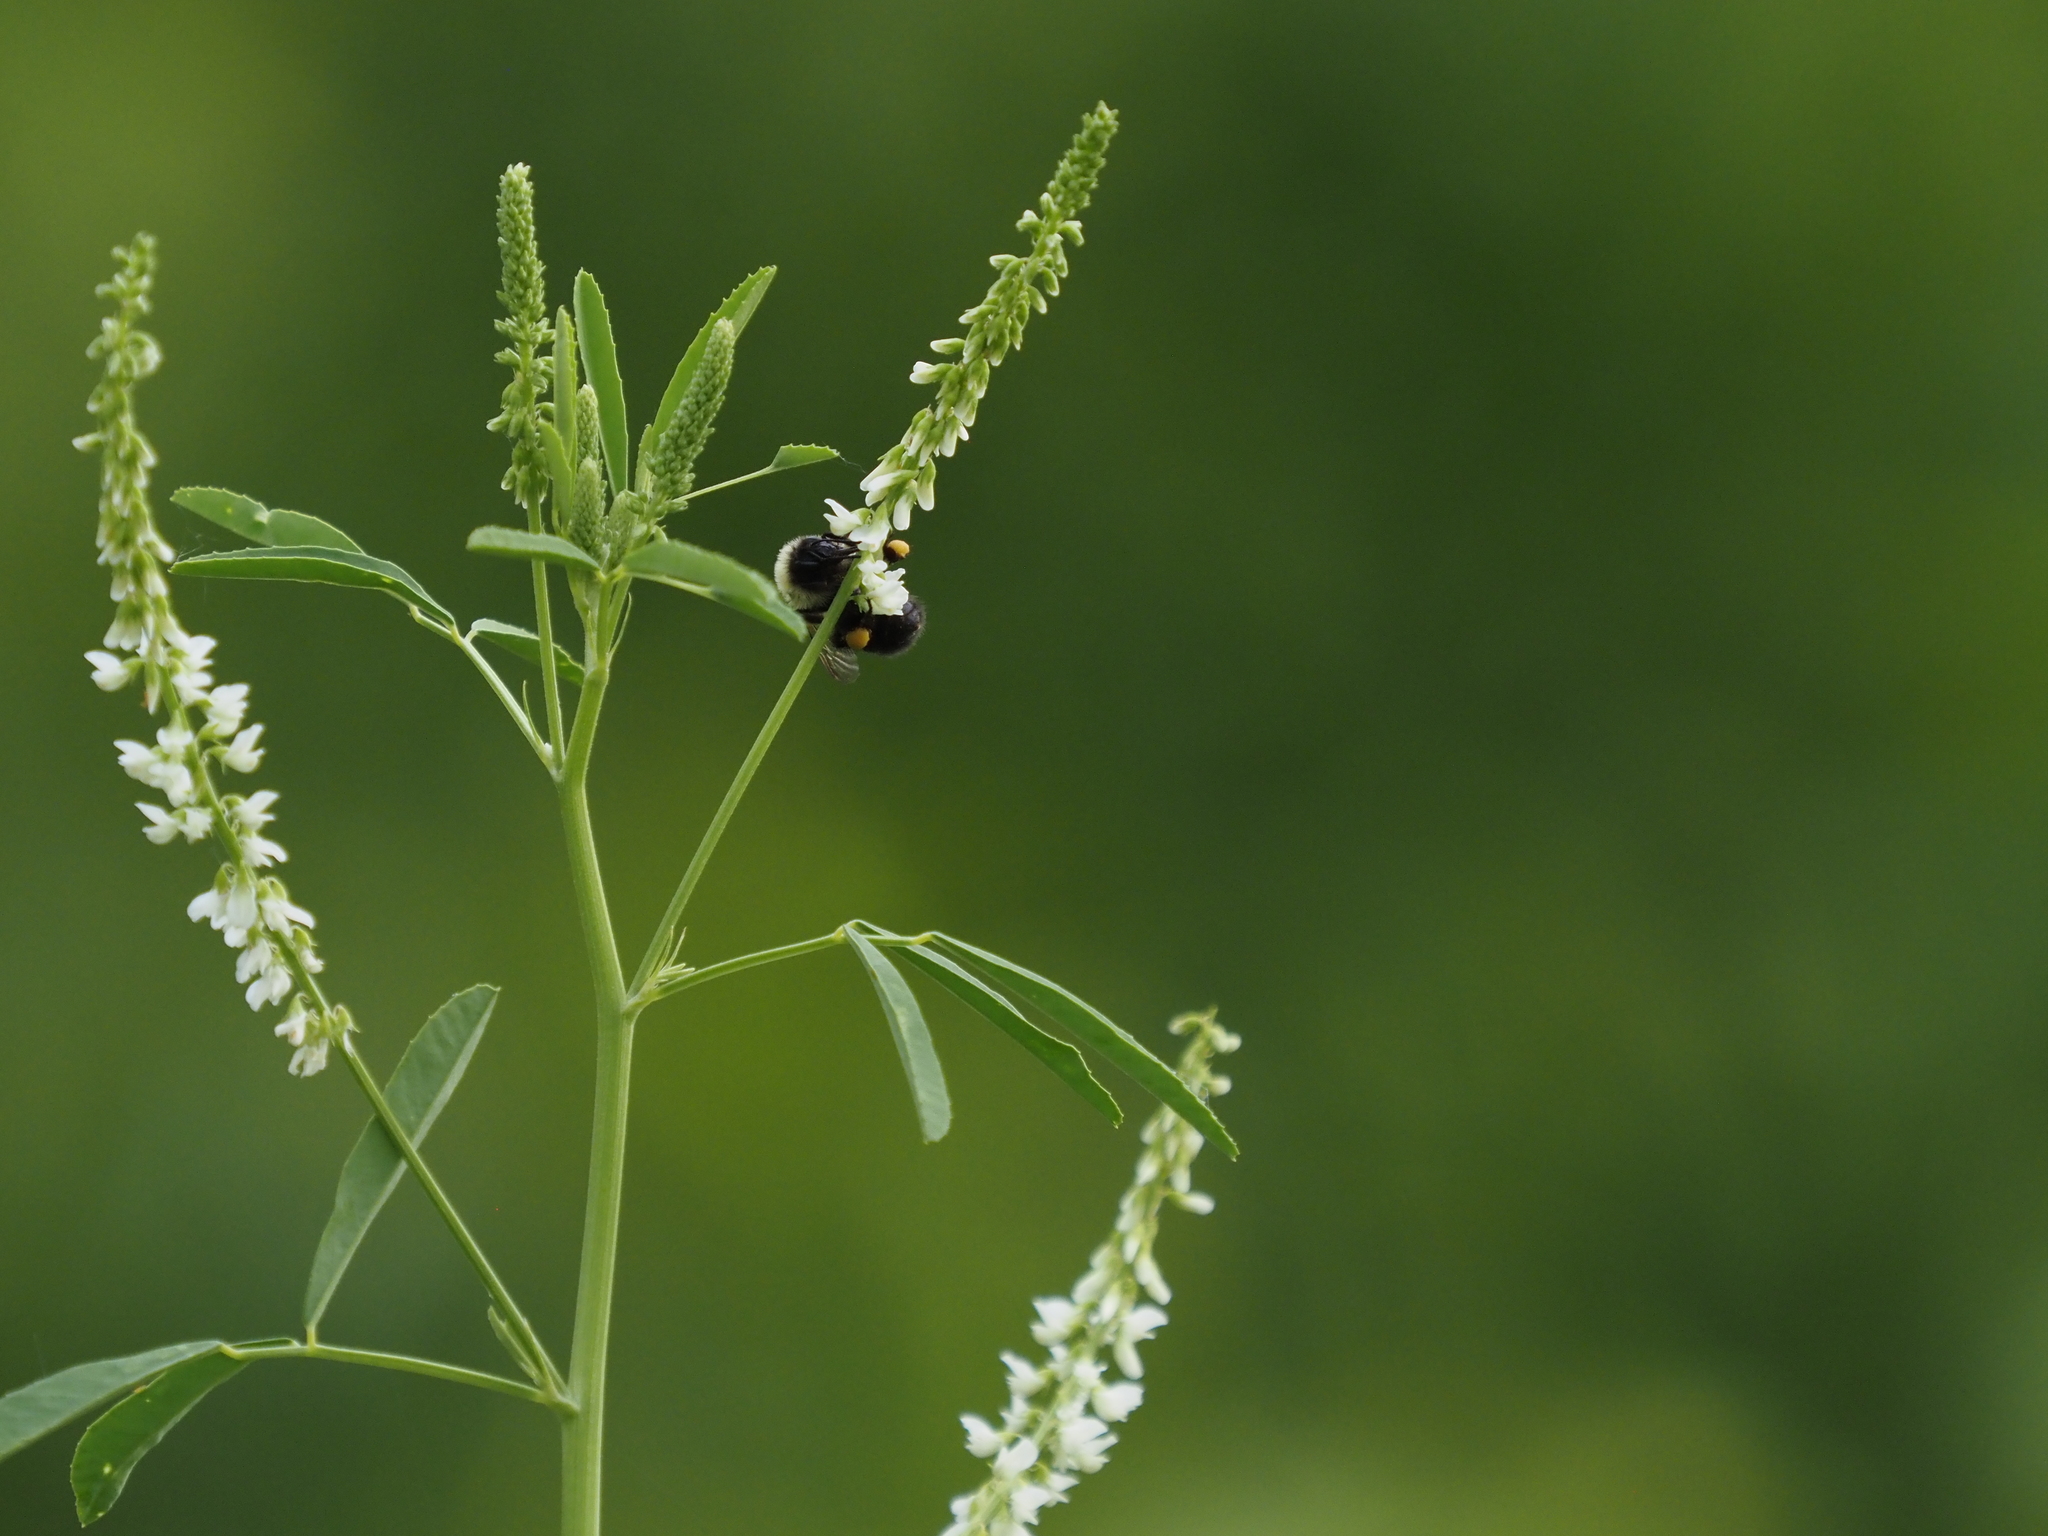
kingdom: Animalia
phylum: Arthropoda
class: Insecta
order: Hymenoptera
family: Apidae
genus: Bombus
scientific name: Bombus bimaculatus
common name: Two-spotted bumble bee
